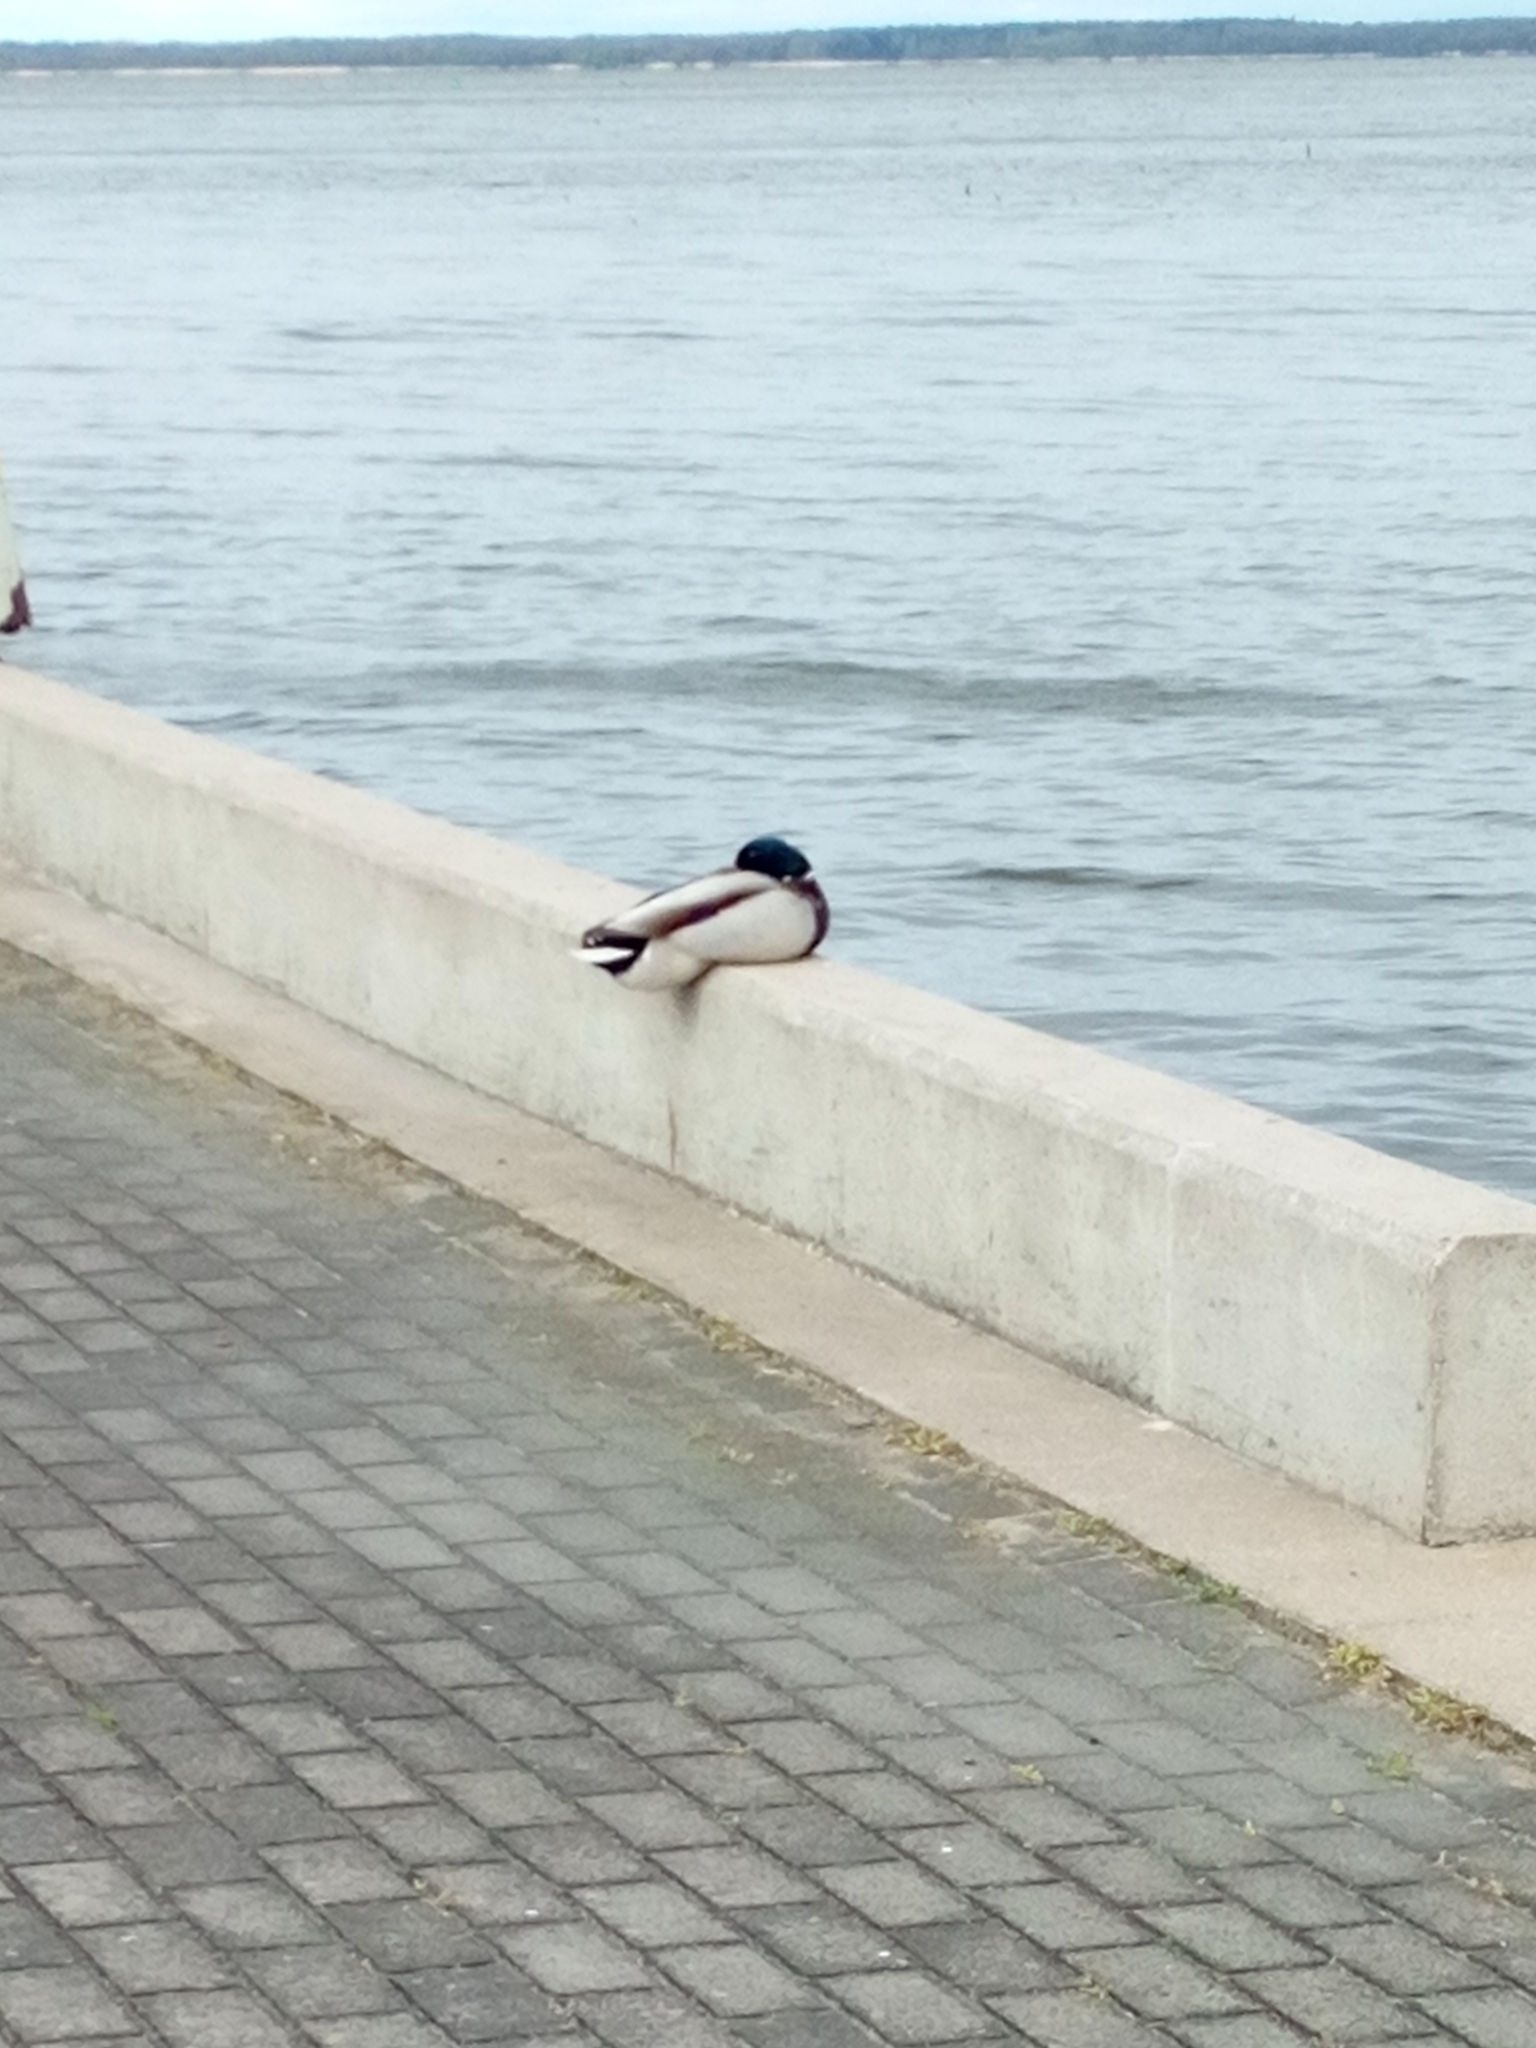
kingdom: Animalia
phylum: Chordata
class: Aves
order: Anseriformes
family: Anatidae
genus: Anas
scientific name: Anas platyrhynchos
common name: Mallard
